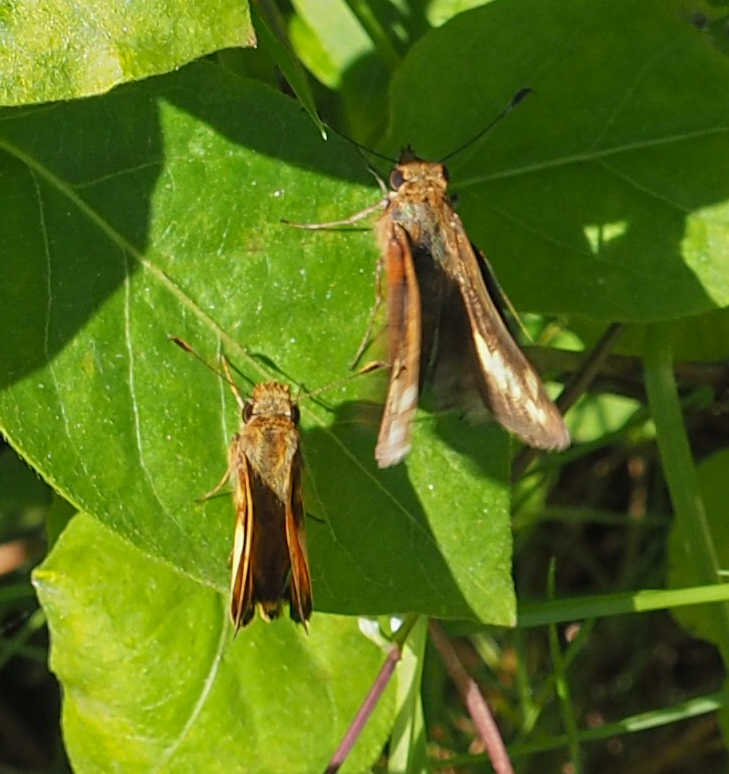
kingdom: Animalia
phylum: Arthropoda
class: Insecta
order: Lepidoptera
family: Hesperiidae
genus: Lon
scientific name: Lon zabulon
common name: Zabulon skipper
